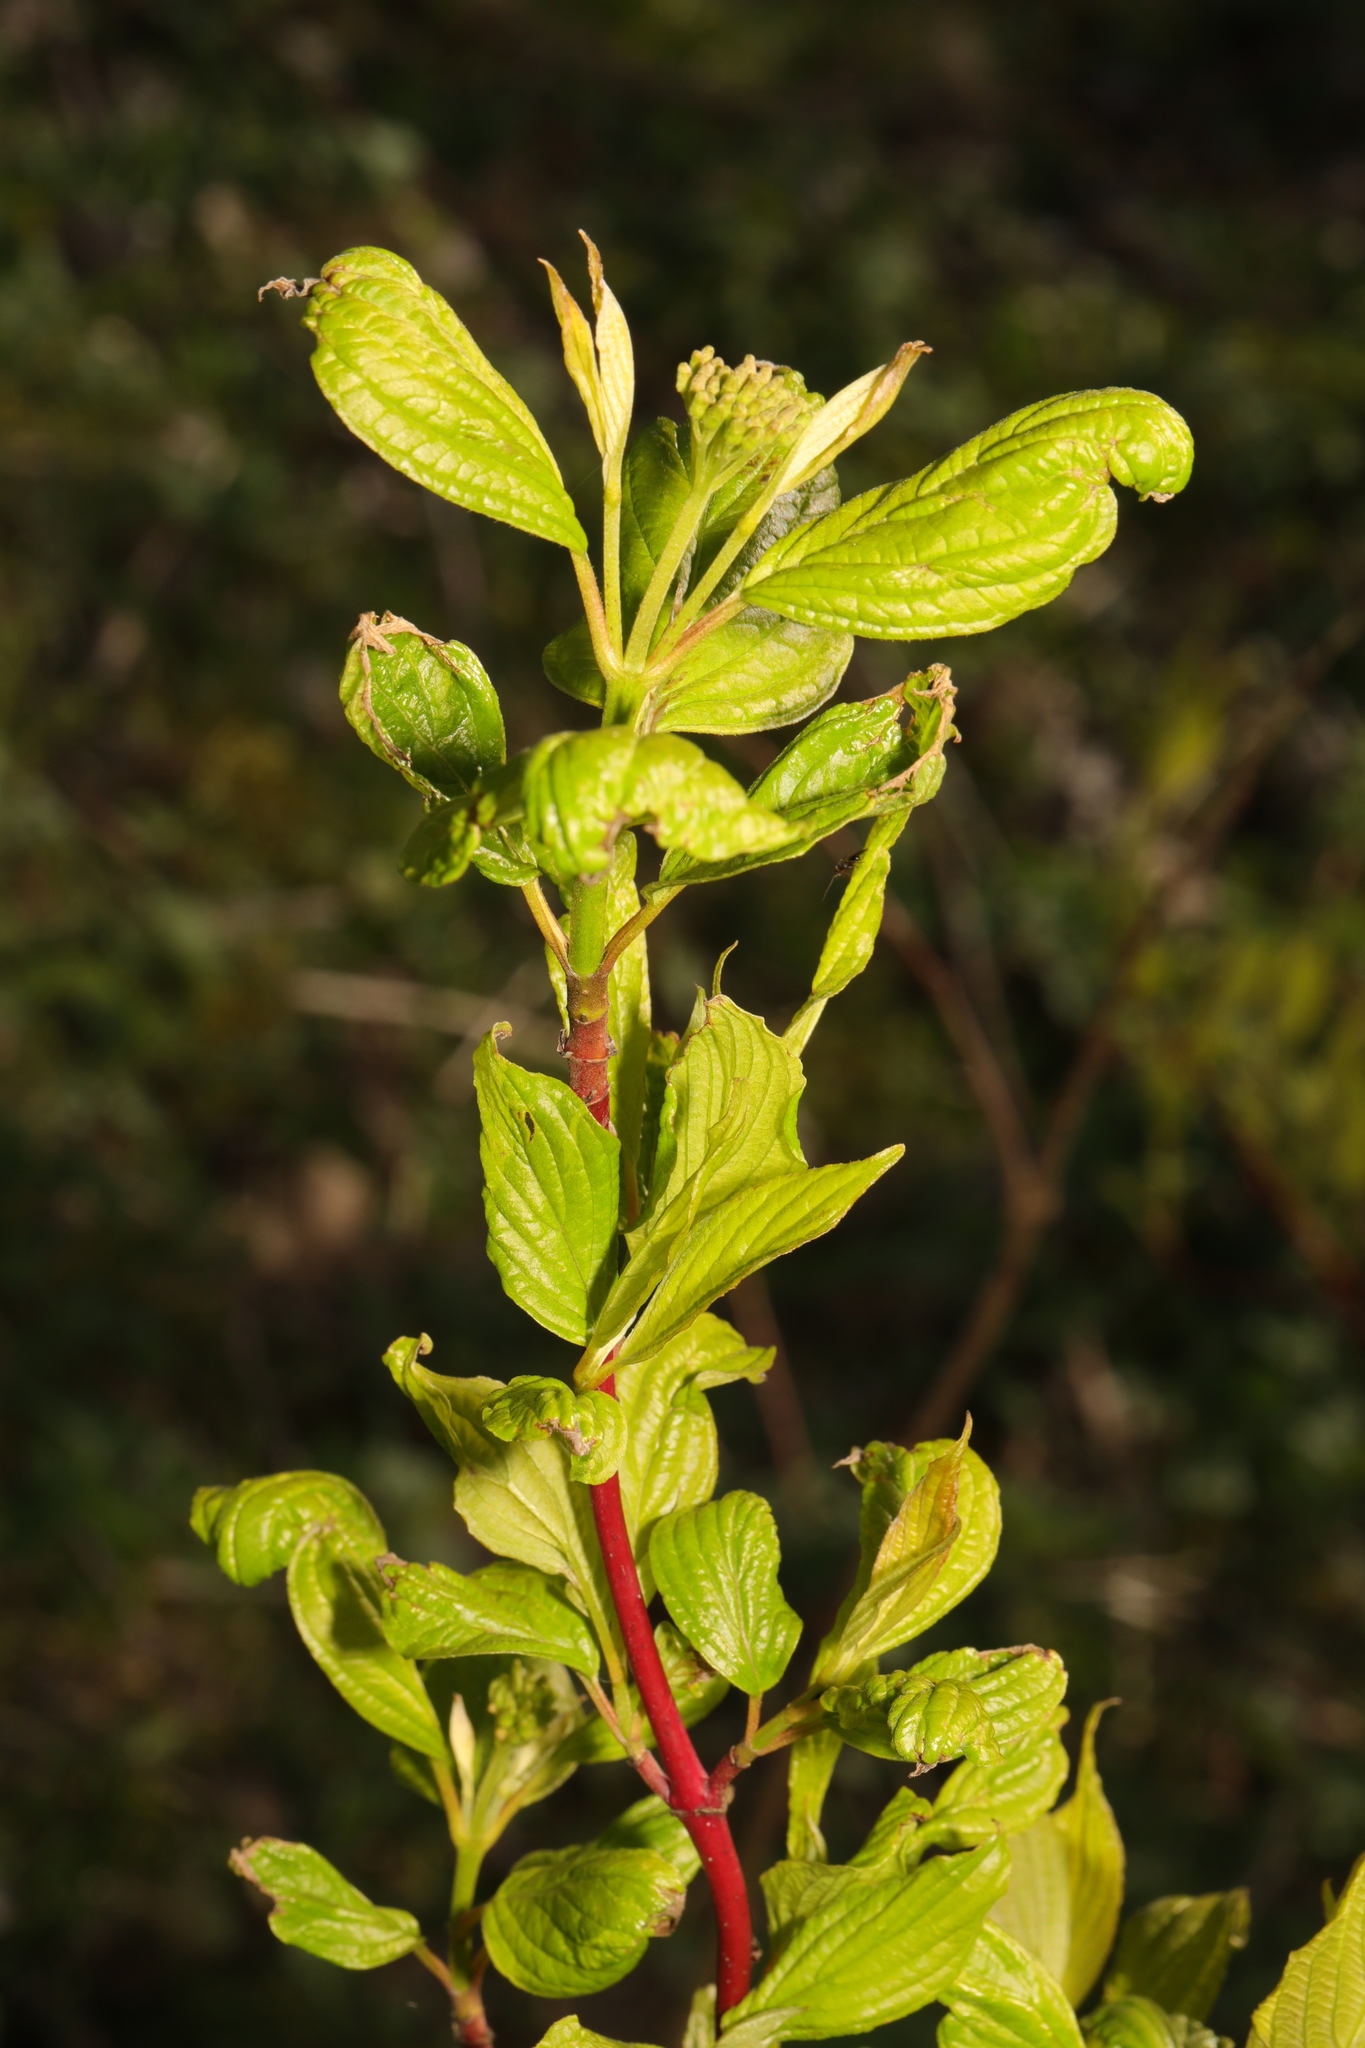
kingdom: Plantae
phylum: Tracheophyta
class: Magnoliopsida
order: Cornales
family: Cornaceae
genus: Cornus
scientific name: Cornus sanguinea
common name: Dogwood
